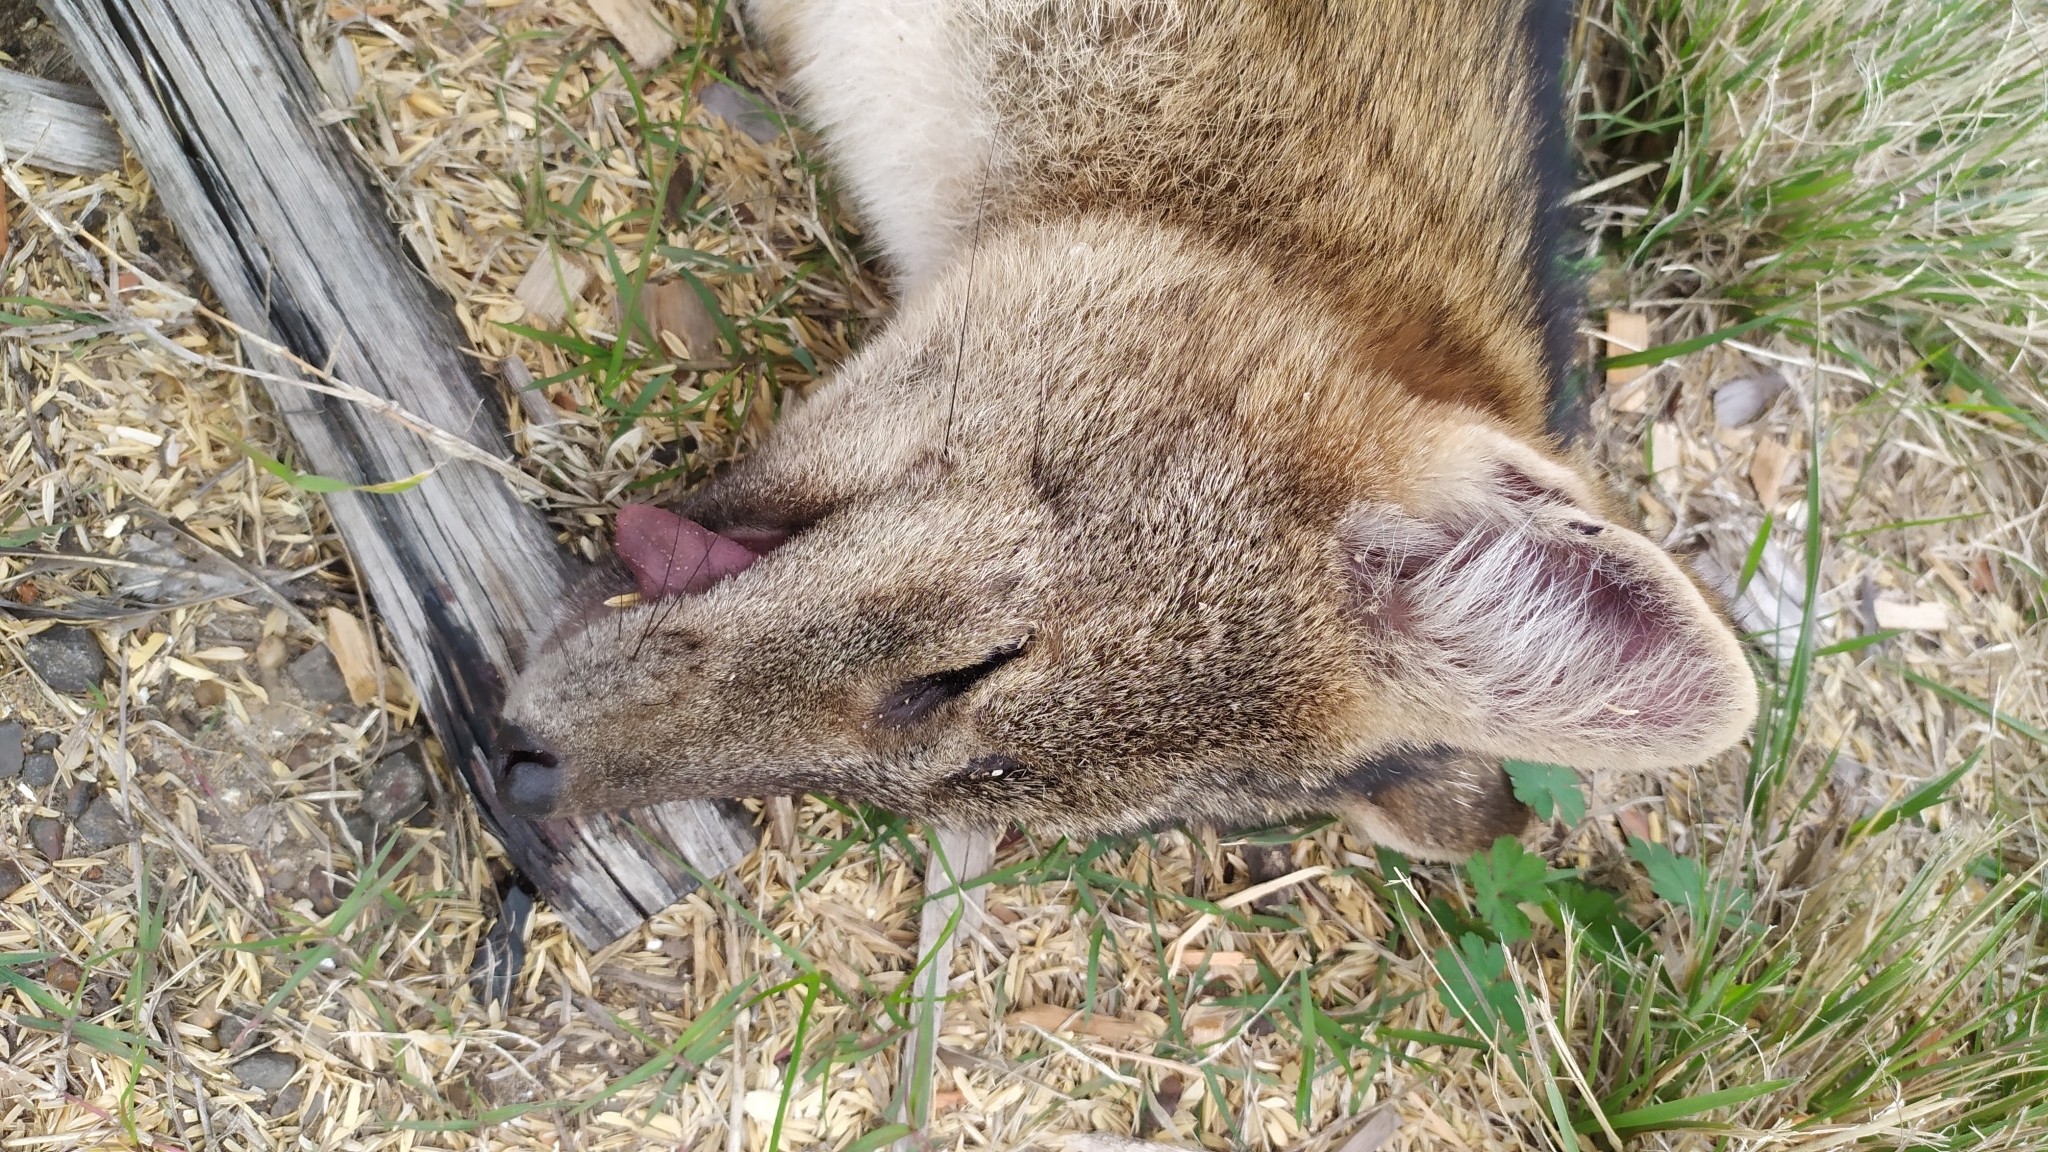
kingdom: Animalia
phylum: Chordata
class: Mammalia
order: Carnivora
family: Canidae
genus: Cerdocyon
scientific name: Cerdocyon thous
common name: Crab-eating fox
